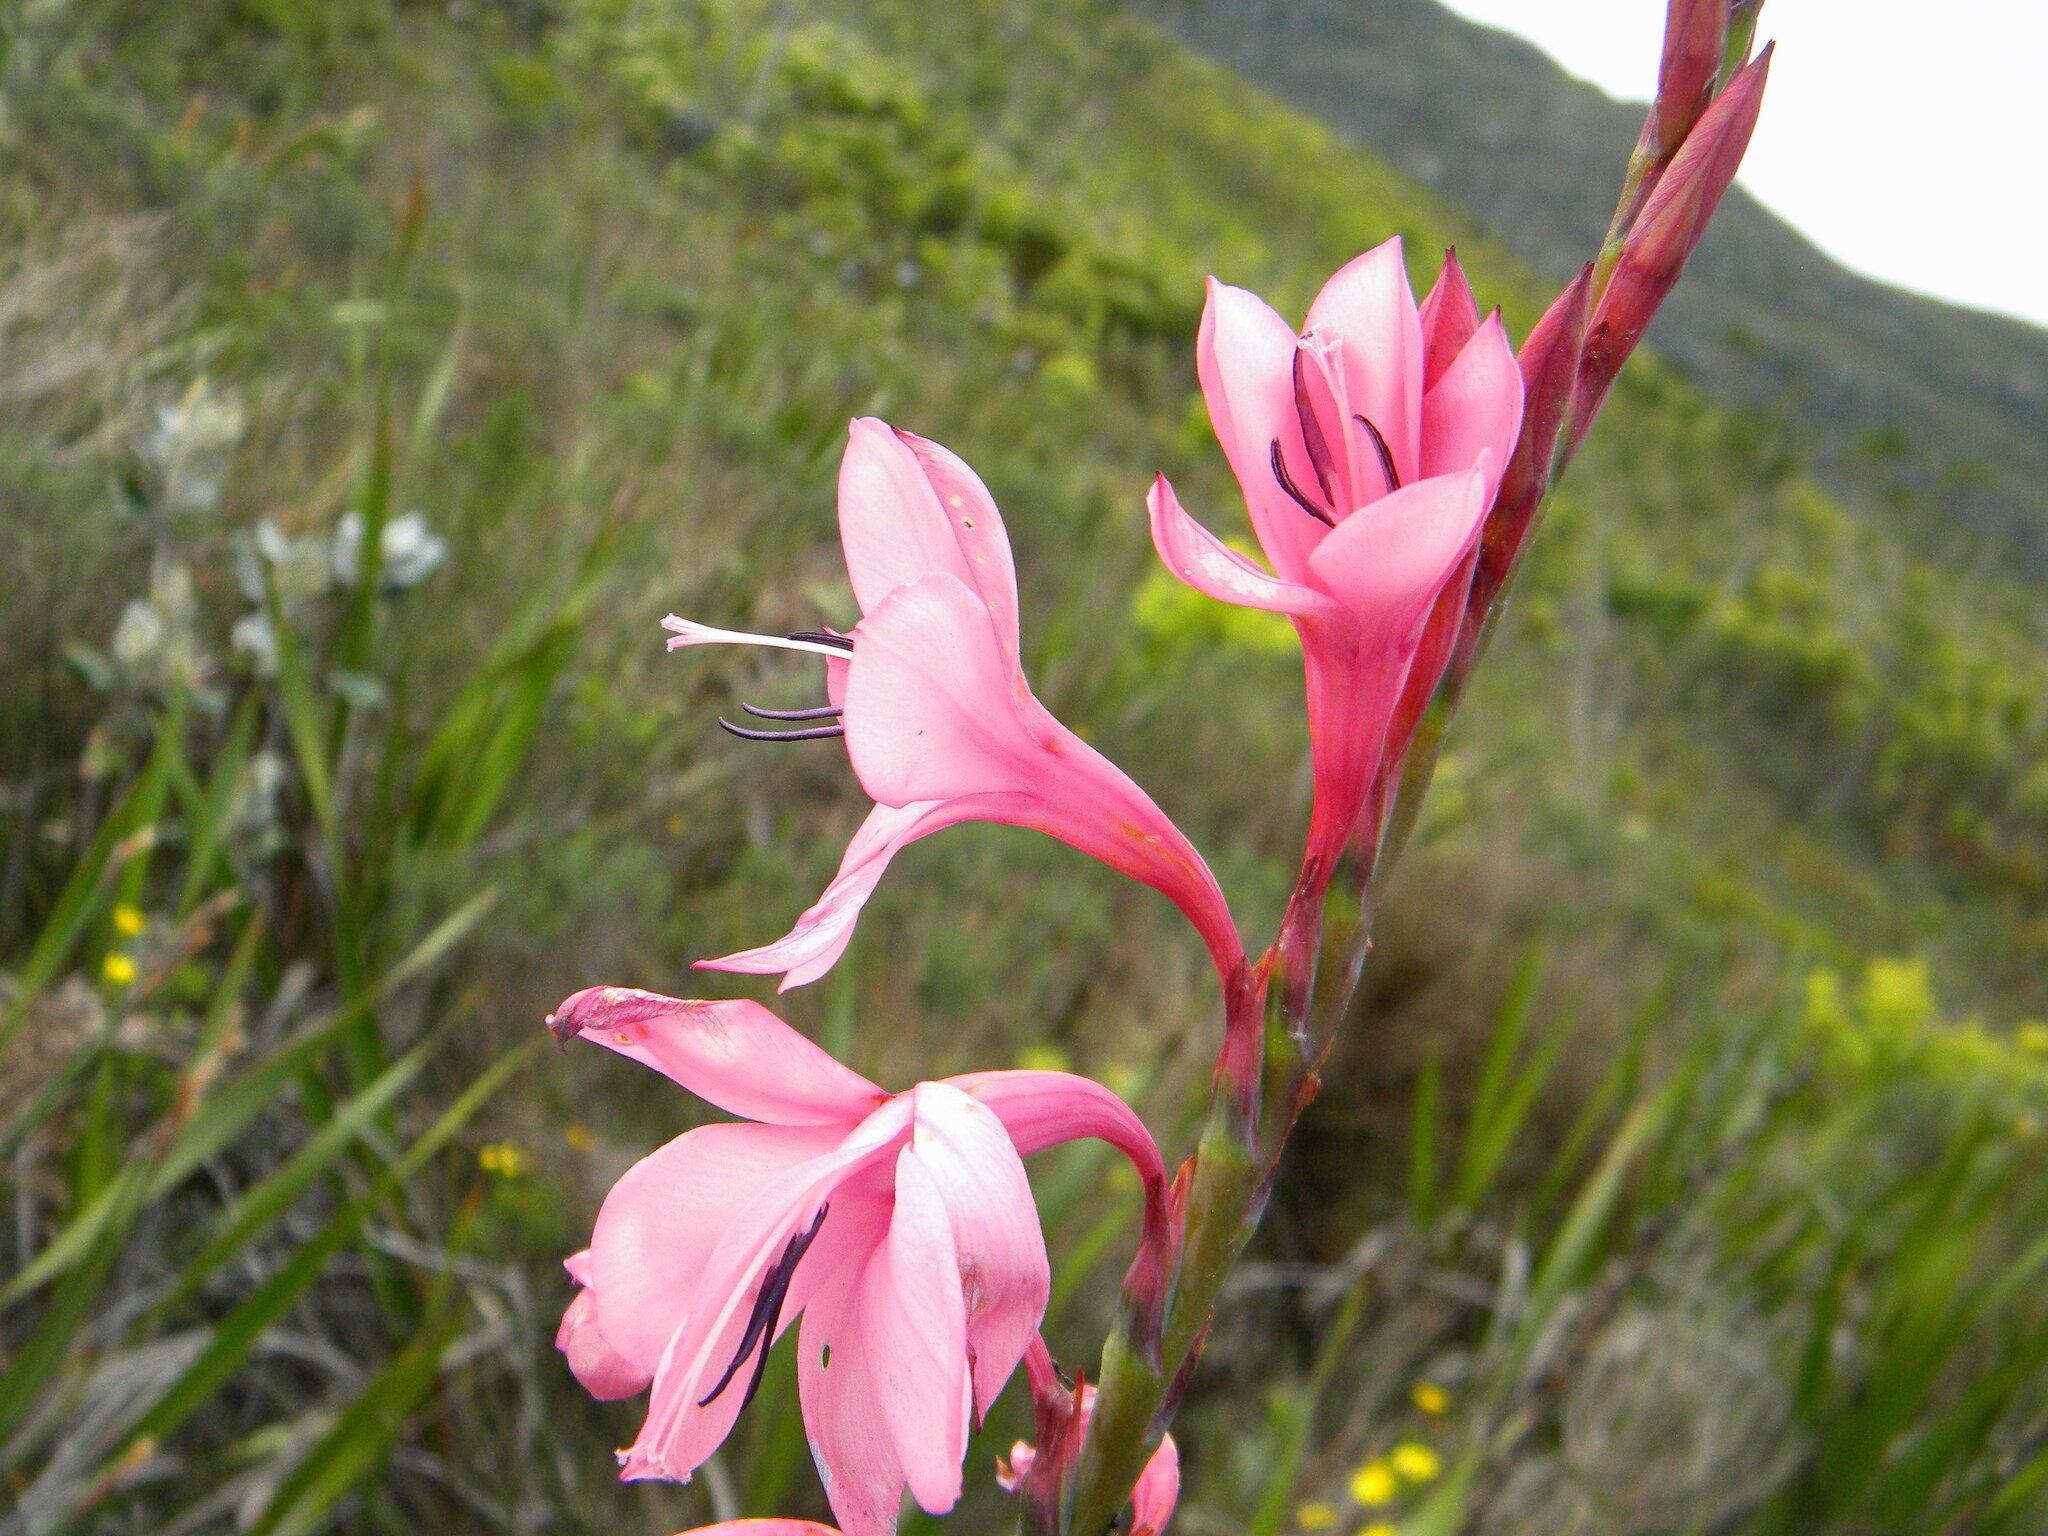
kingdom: Plantae
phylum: Tracheophyta
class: Liliopsida
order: Asparagales
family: Iridaceae
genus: Watsonia
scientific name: Watsonia borbonica
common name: Bugle-lily
